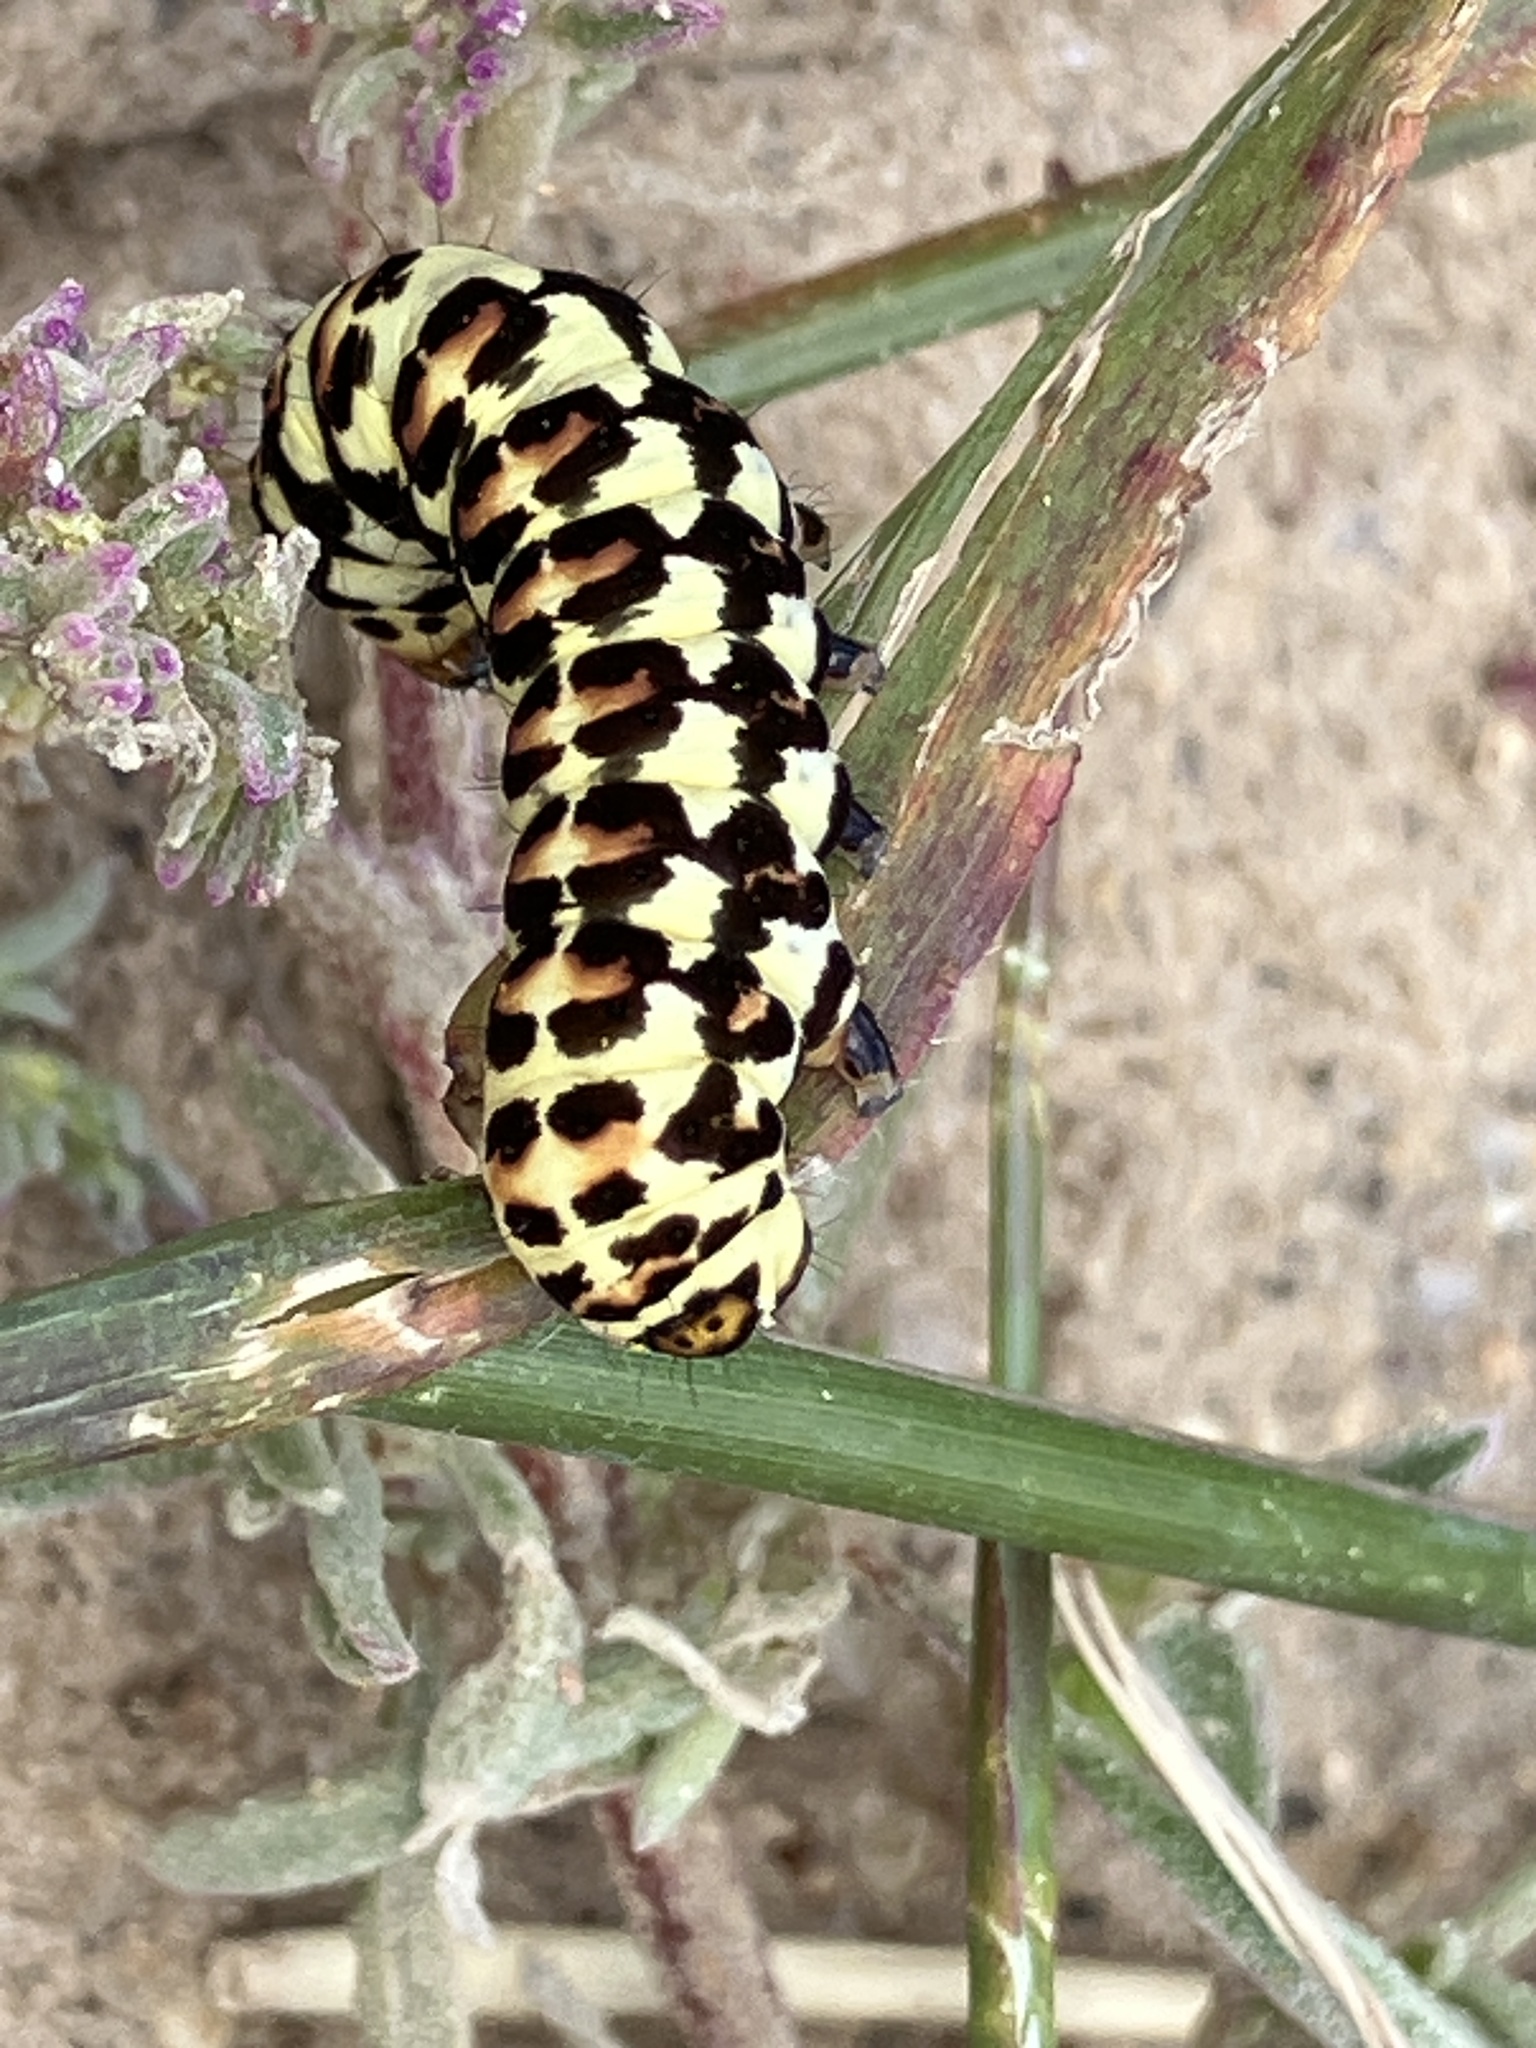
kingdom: Animalia
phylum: Arthropoda
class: Insecta
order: Lepidoptera
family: Noctuidae
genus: Diaphone
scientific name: Diaphone eumela
